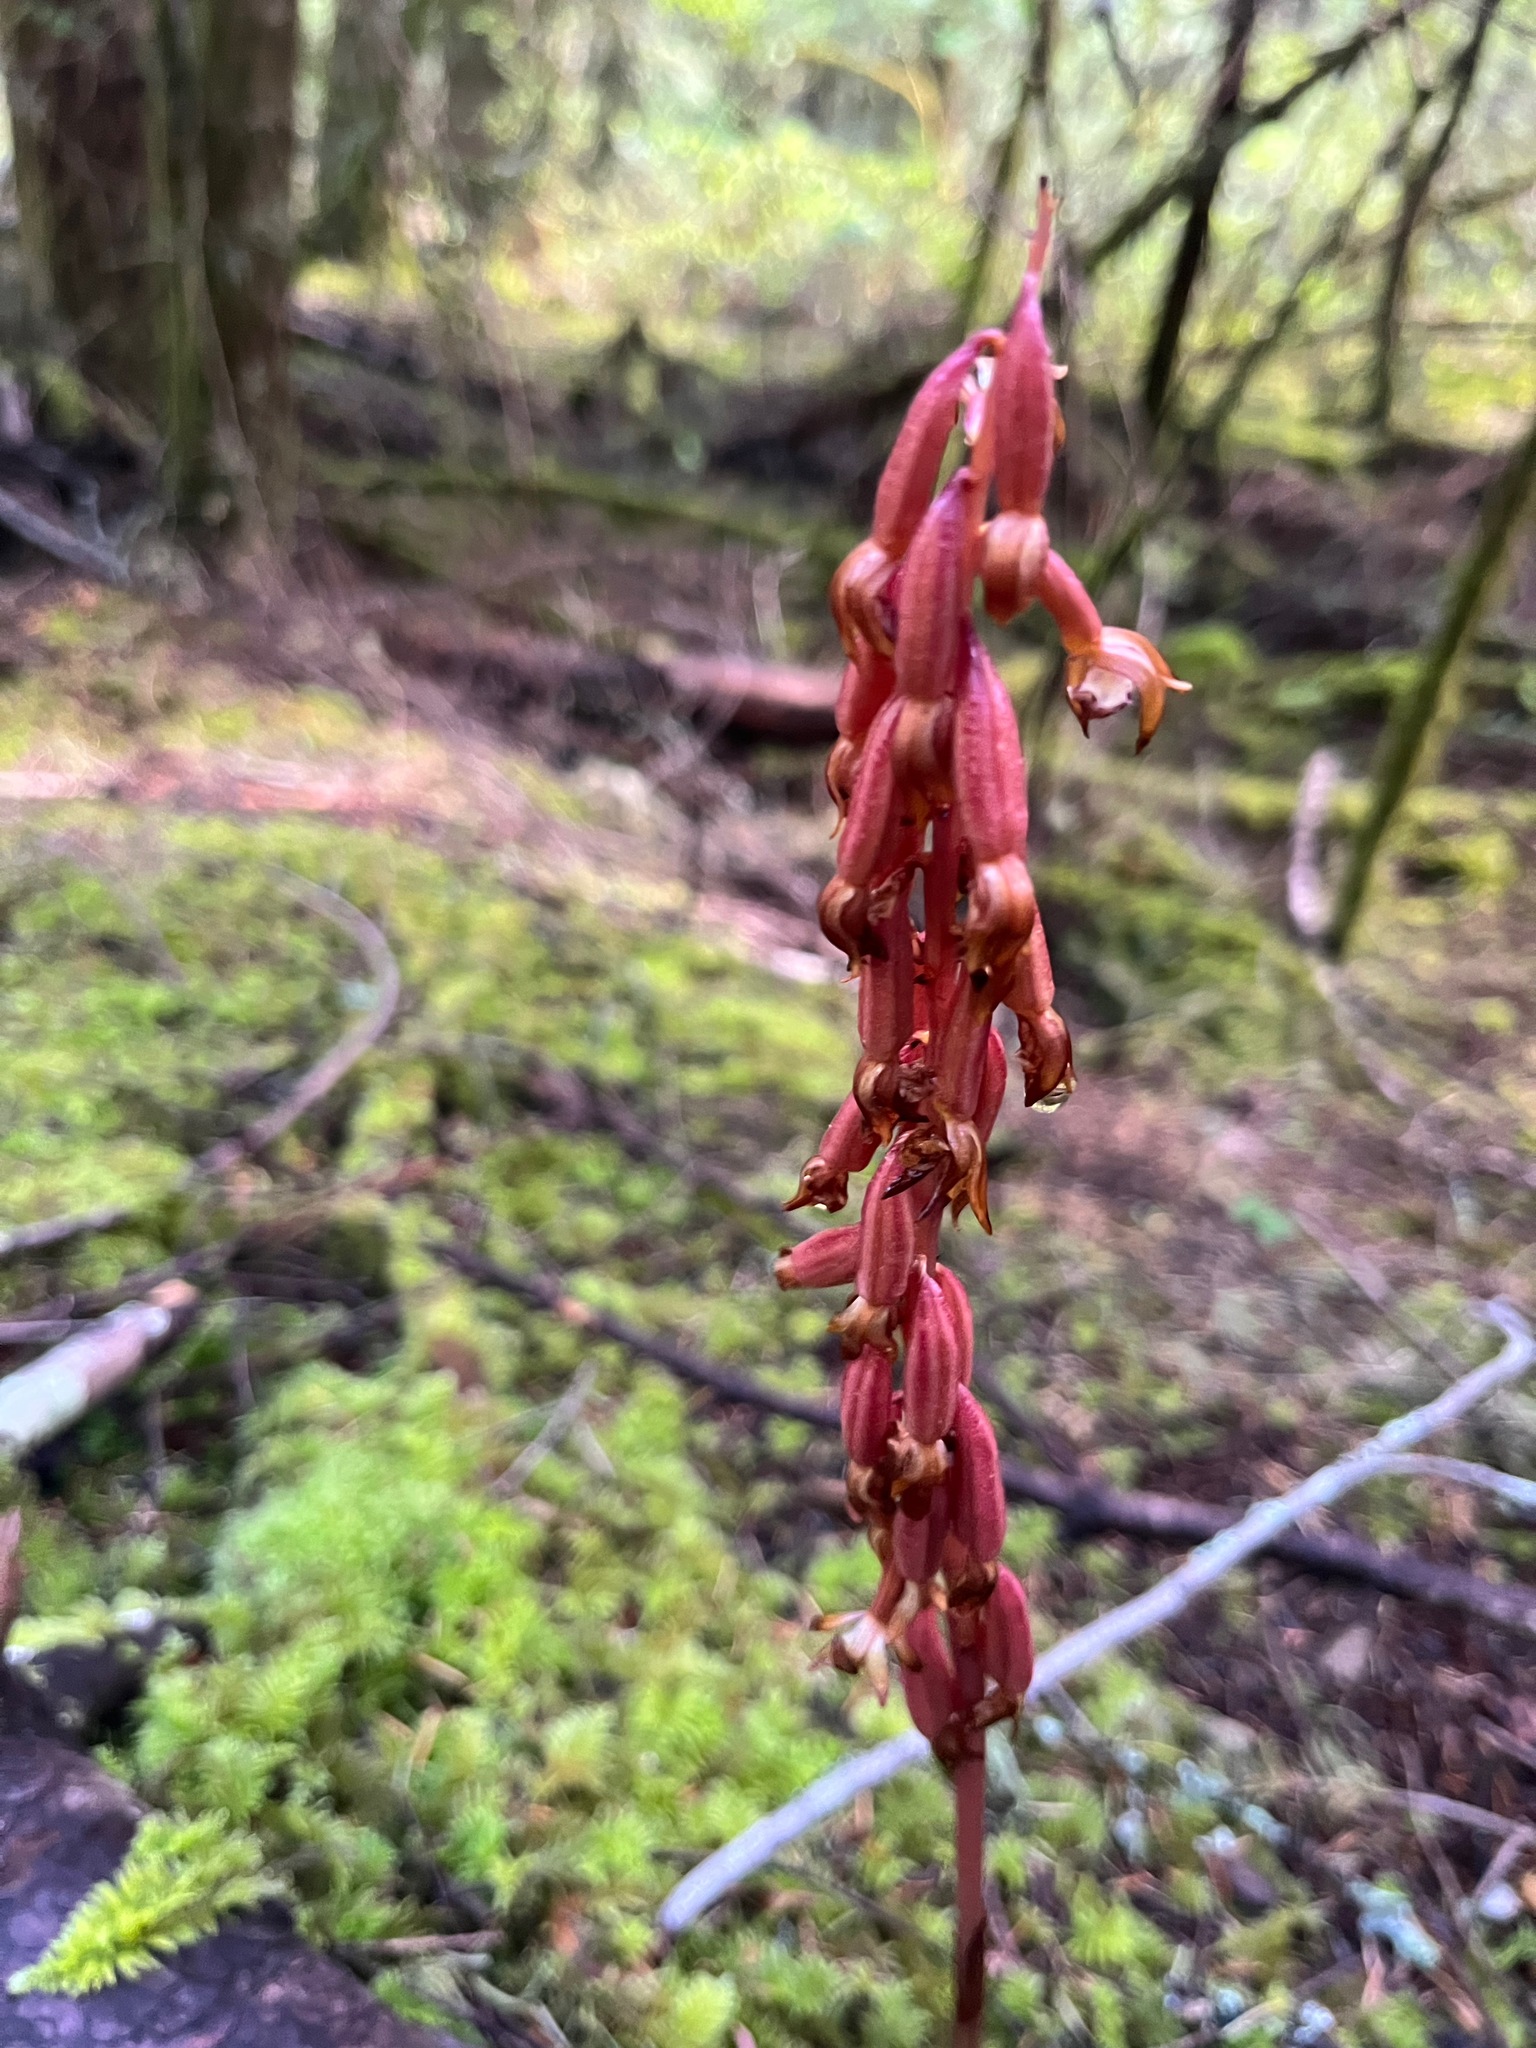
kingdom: Plantae
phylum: Tracheophyta
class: Liliopsida
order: Asparagales
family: Orchidaceae
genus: Corallorhiza
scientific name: Corallorhiza maculata
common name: Spotted coralroot
